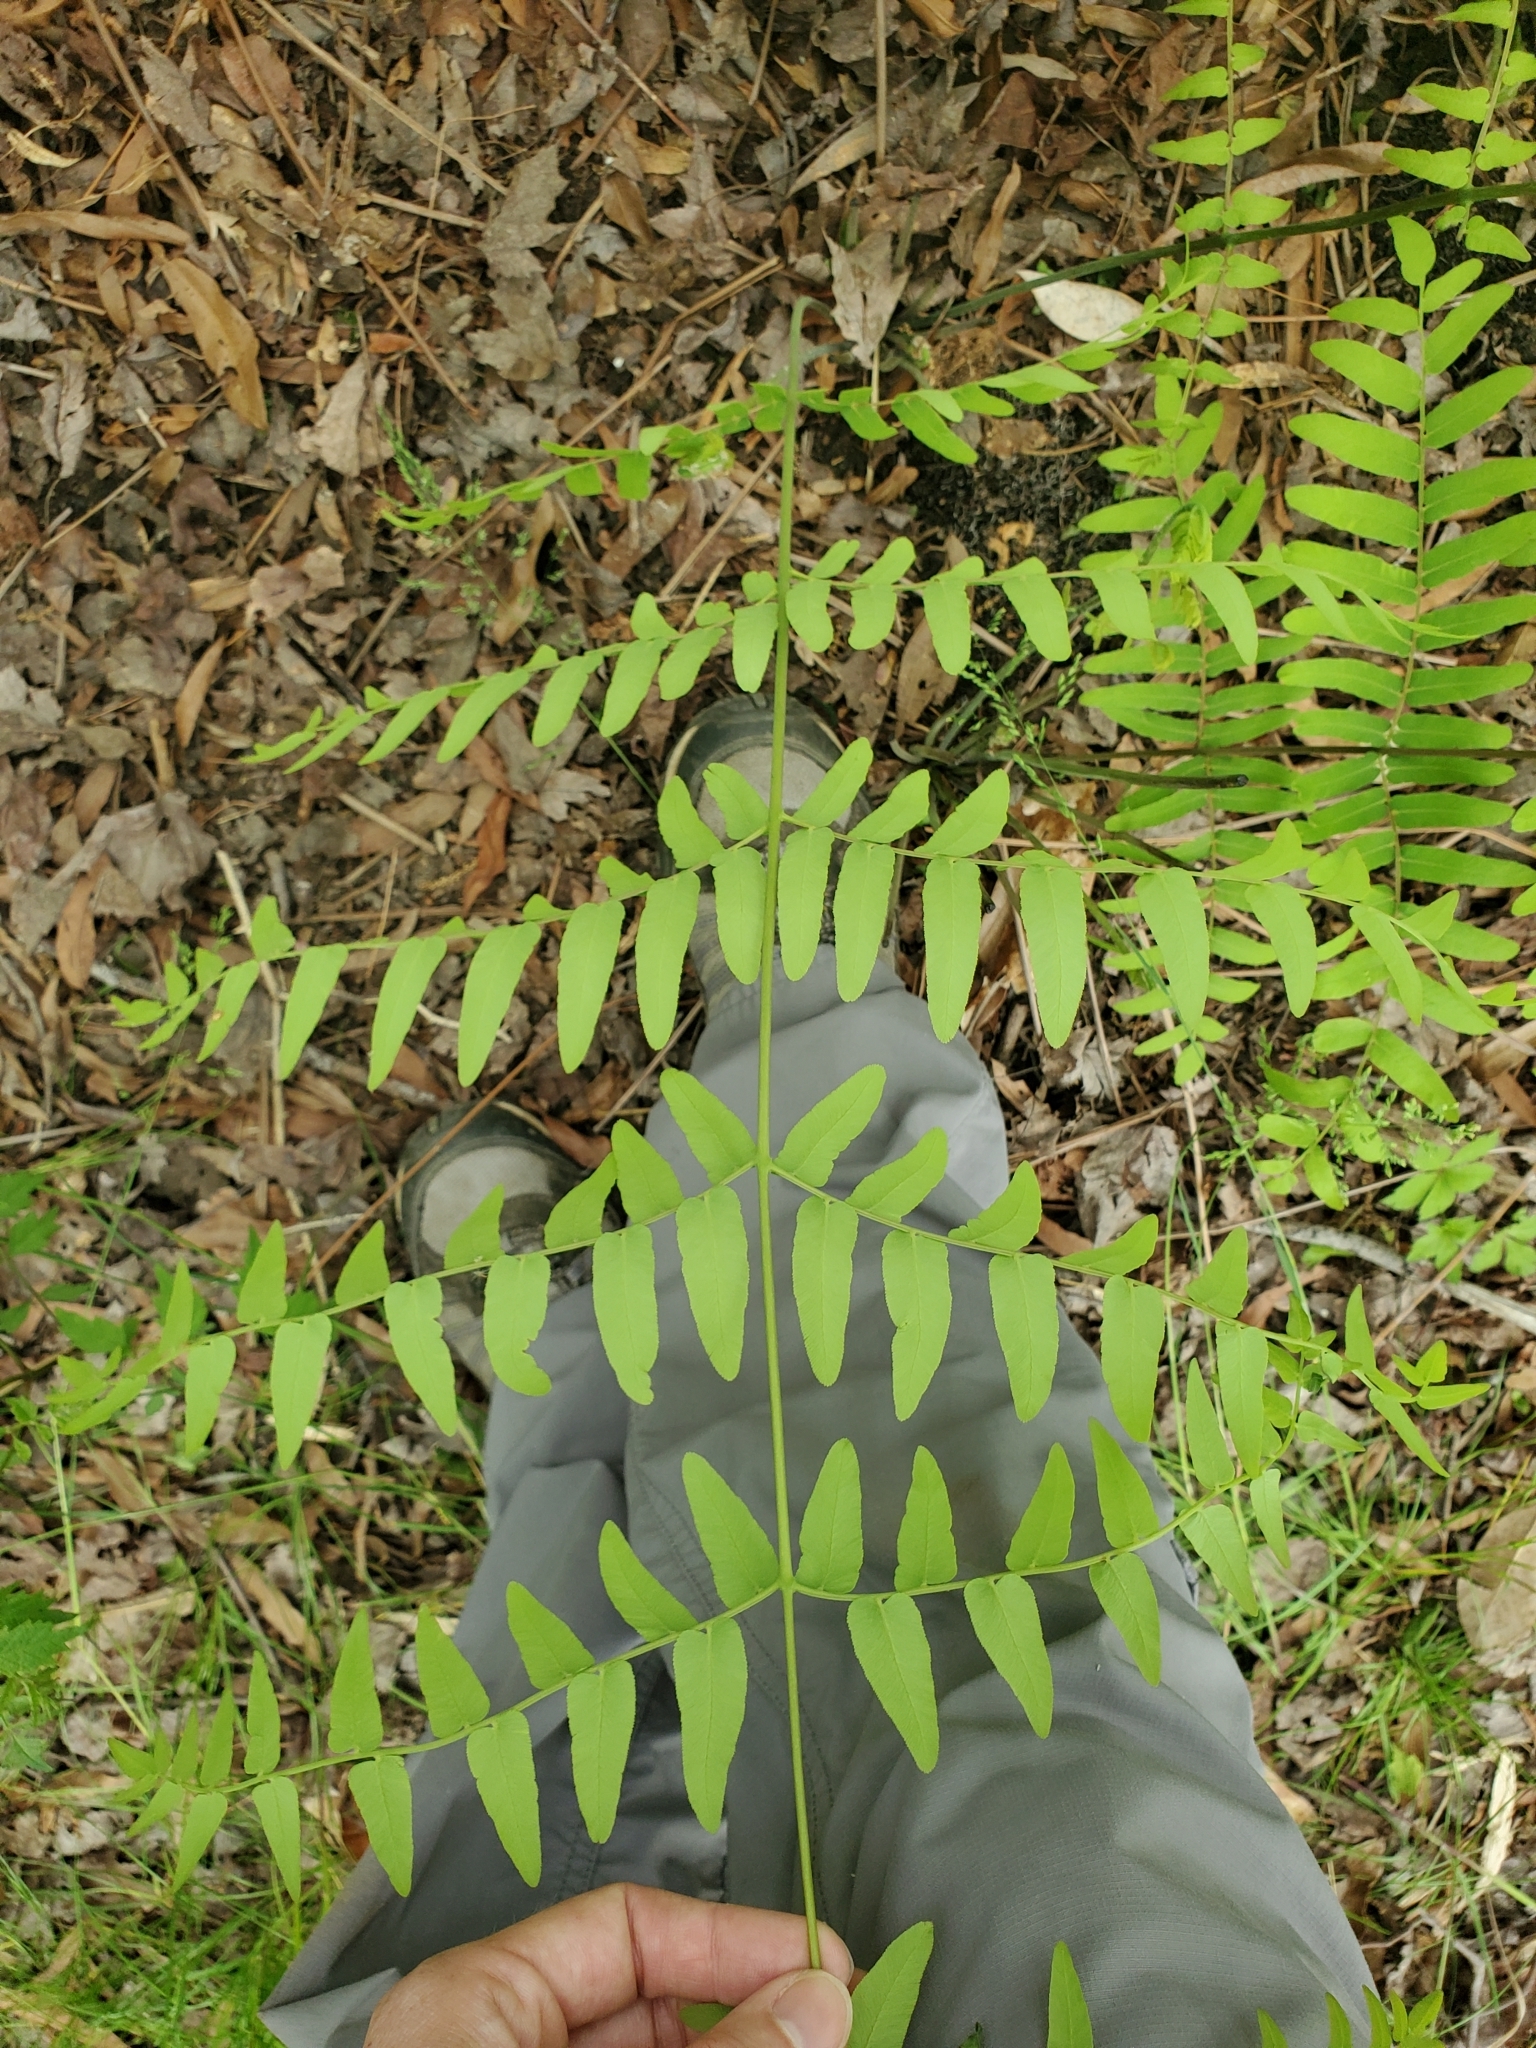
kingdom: Plantae
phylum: Tracheophyta
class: Polypodiopsida
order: Osmundales
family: Osmundaceae
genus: Osmunda
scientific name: Osmunda spectabilis
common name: American royal fern
